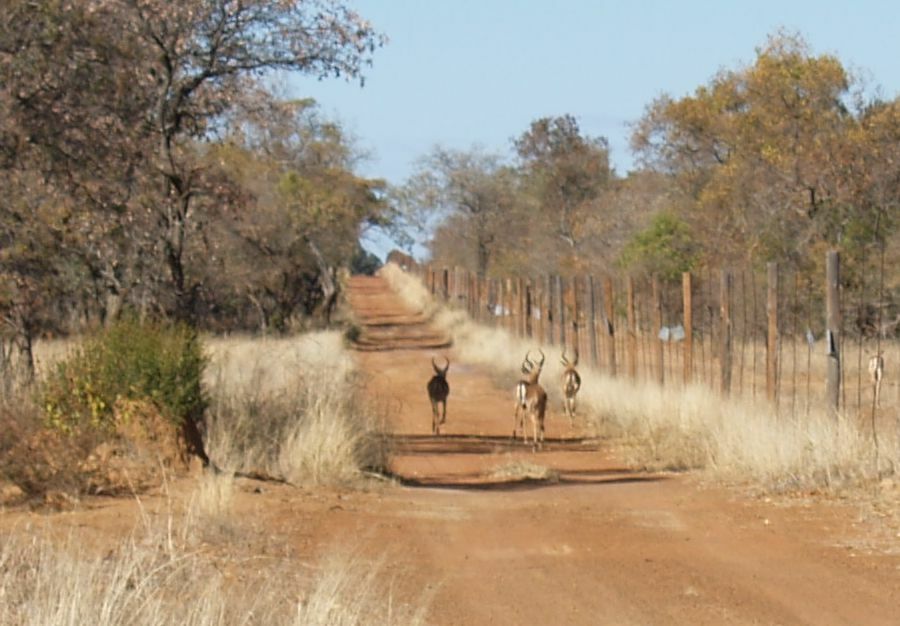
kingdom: Animalia
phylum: Chordata
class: Mammalia
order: Artiodactyla
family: Bovidae
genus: Aepyceros
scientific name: Aepyceros melampus
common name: Impala
